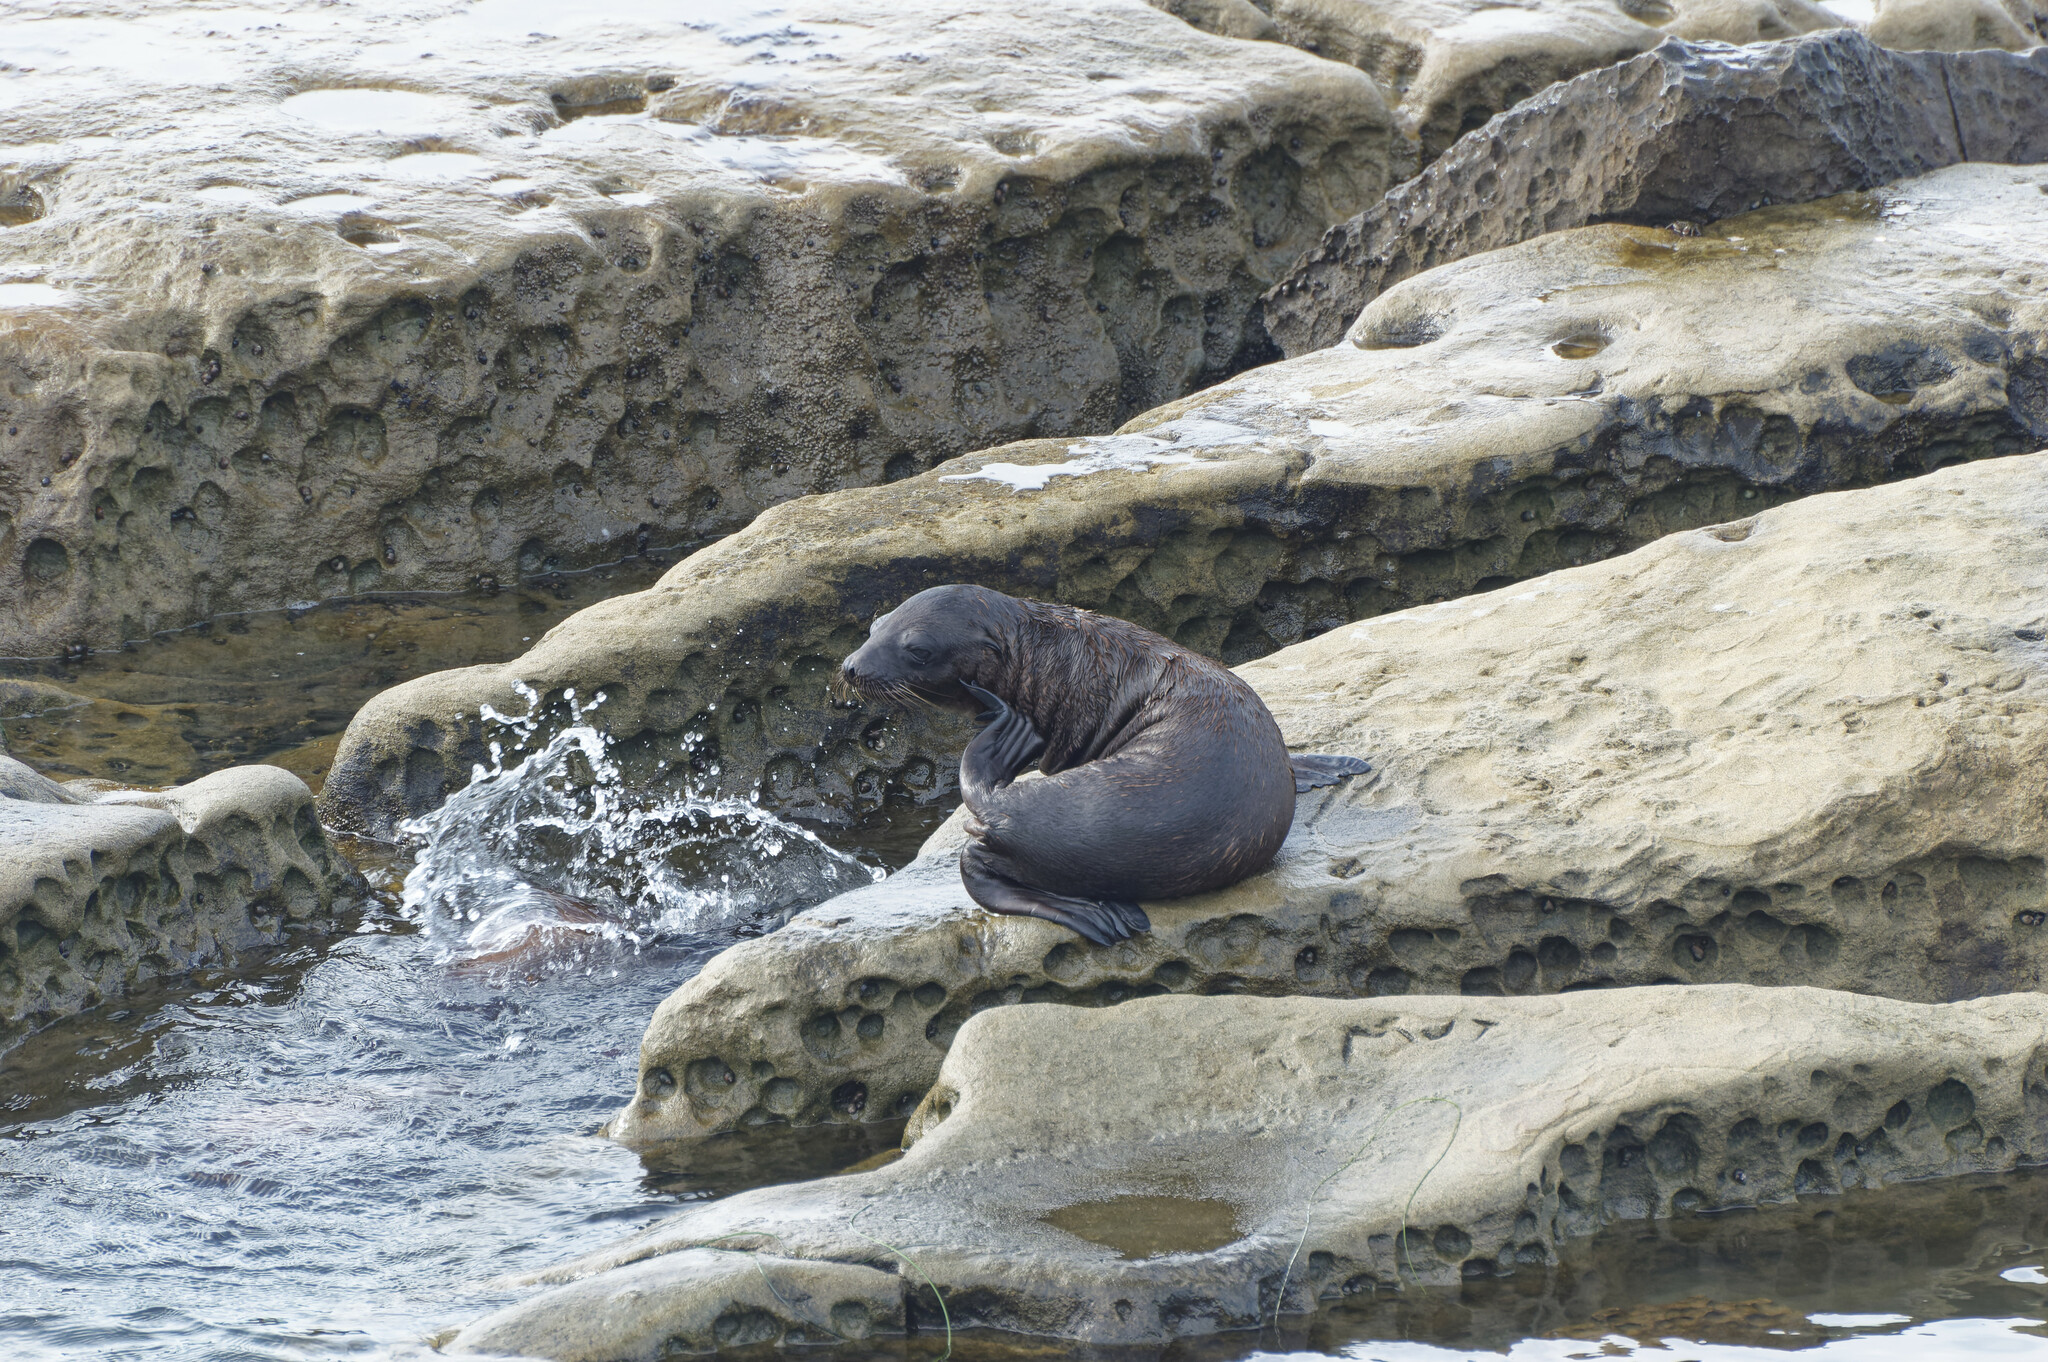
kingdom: Animalia
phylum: Chordata
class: Mammalia
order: Carnivora
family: Otariidae
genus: Zalophus
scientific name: Zalophus californianus
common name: California sea lion
